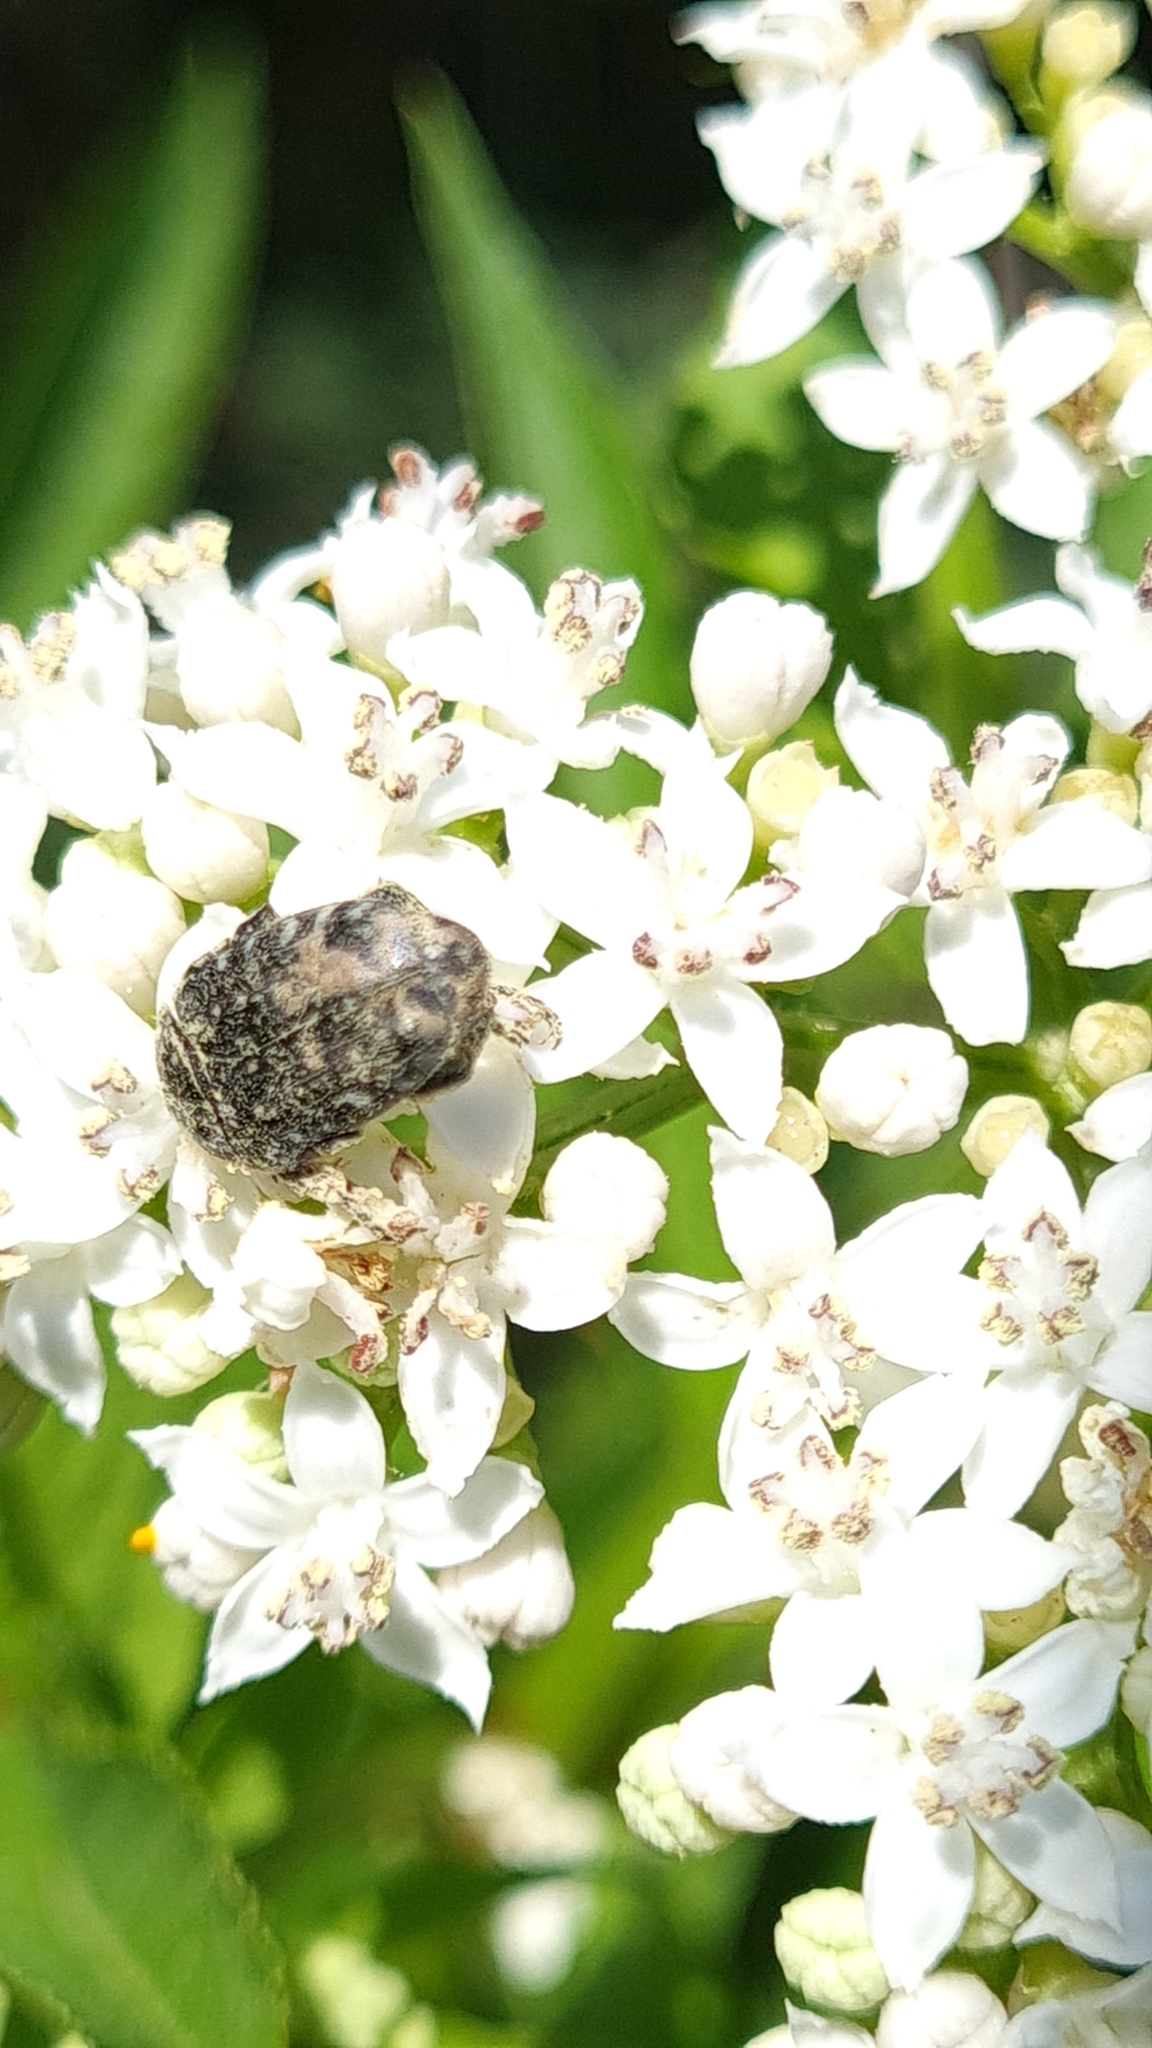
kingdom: Animalia
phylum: Arthropoda
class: Insecta
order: Coleoptera
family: Scarabaeidae
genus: Oxythyrea
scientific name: Oxythyrea funesta
